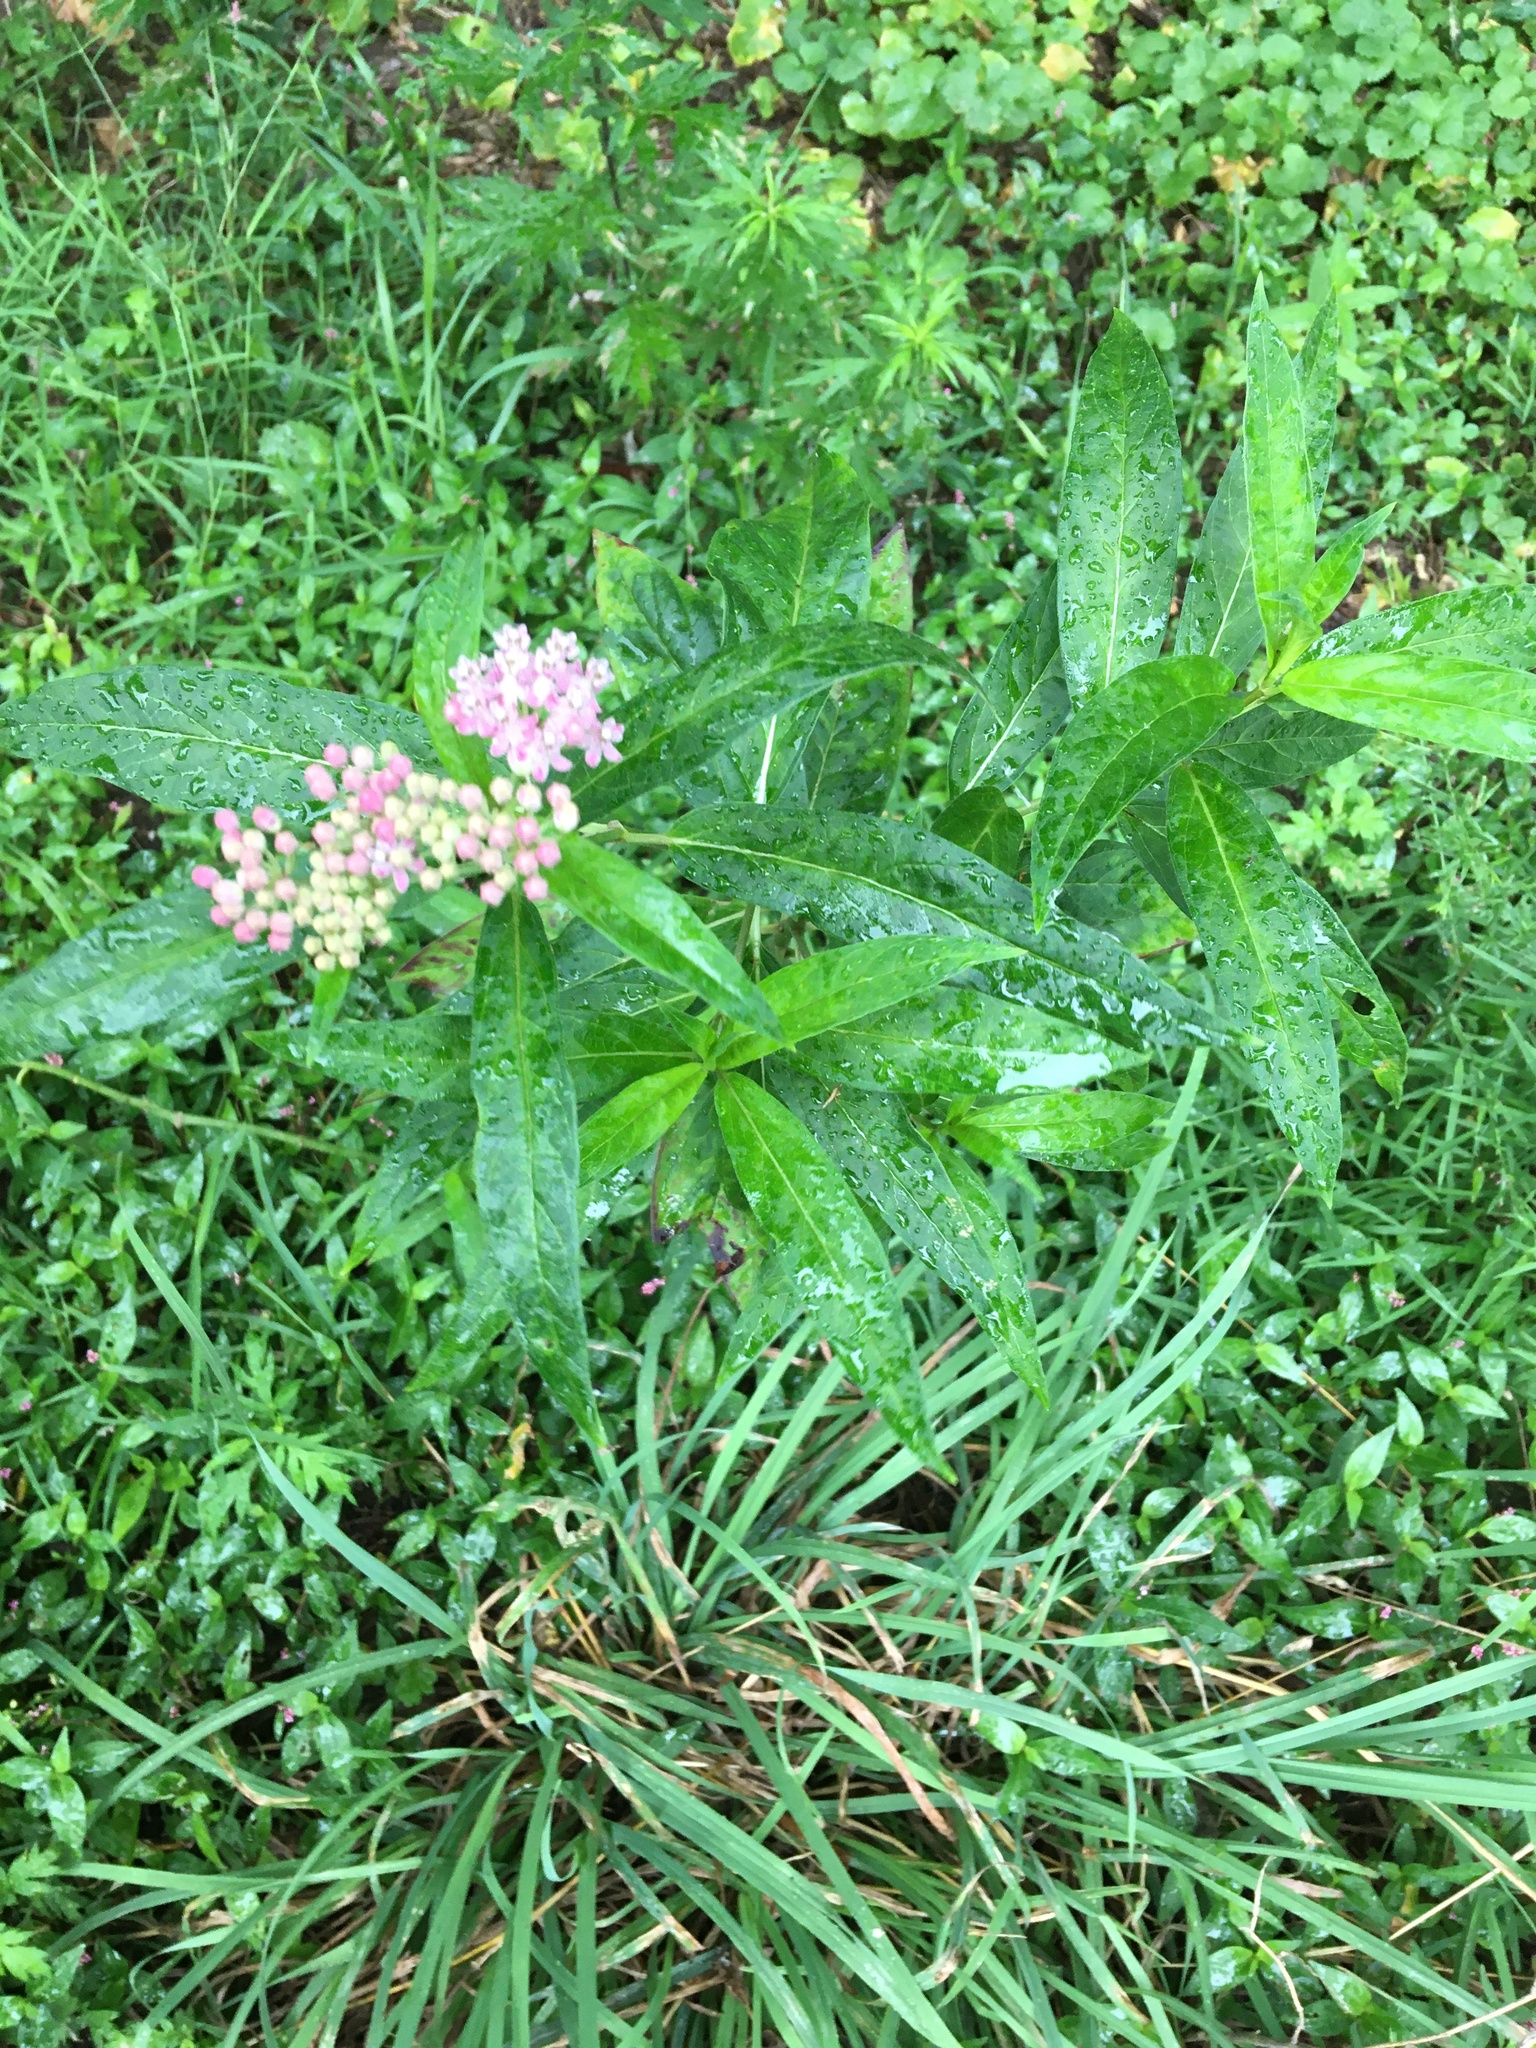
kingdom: Plantae
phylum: Tracheophyta
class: Magnoliopsida
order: Gentianales
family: Apocynaceae
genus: Asclepias
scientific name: Asclepias incarnata
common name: Swamp milkweed
